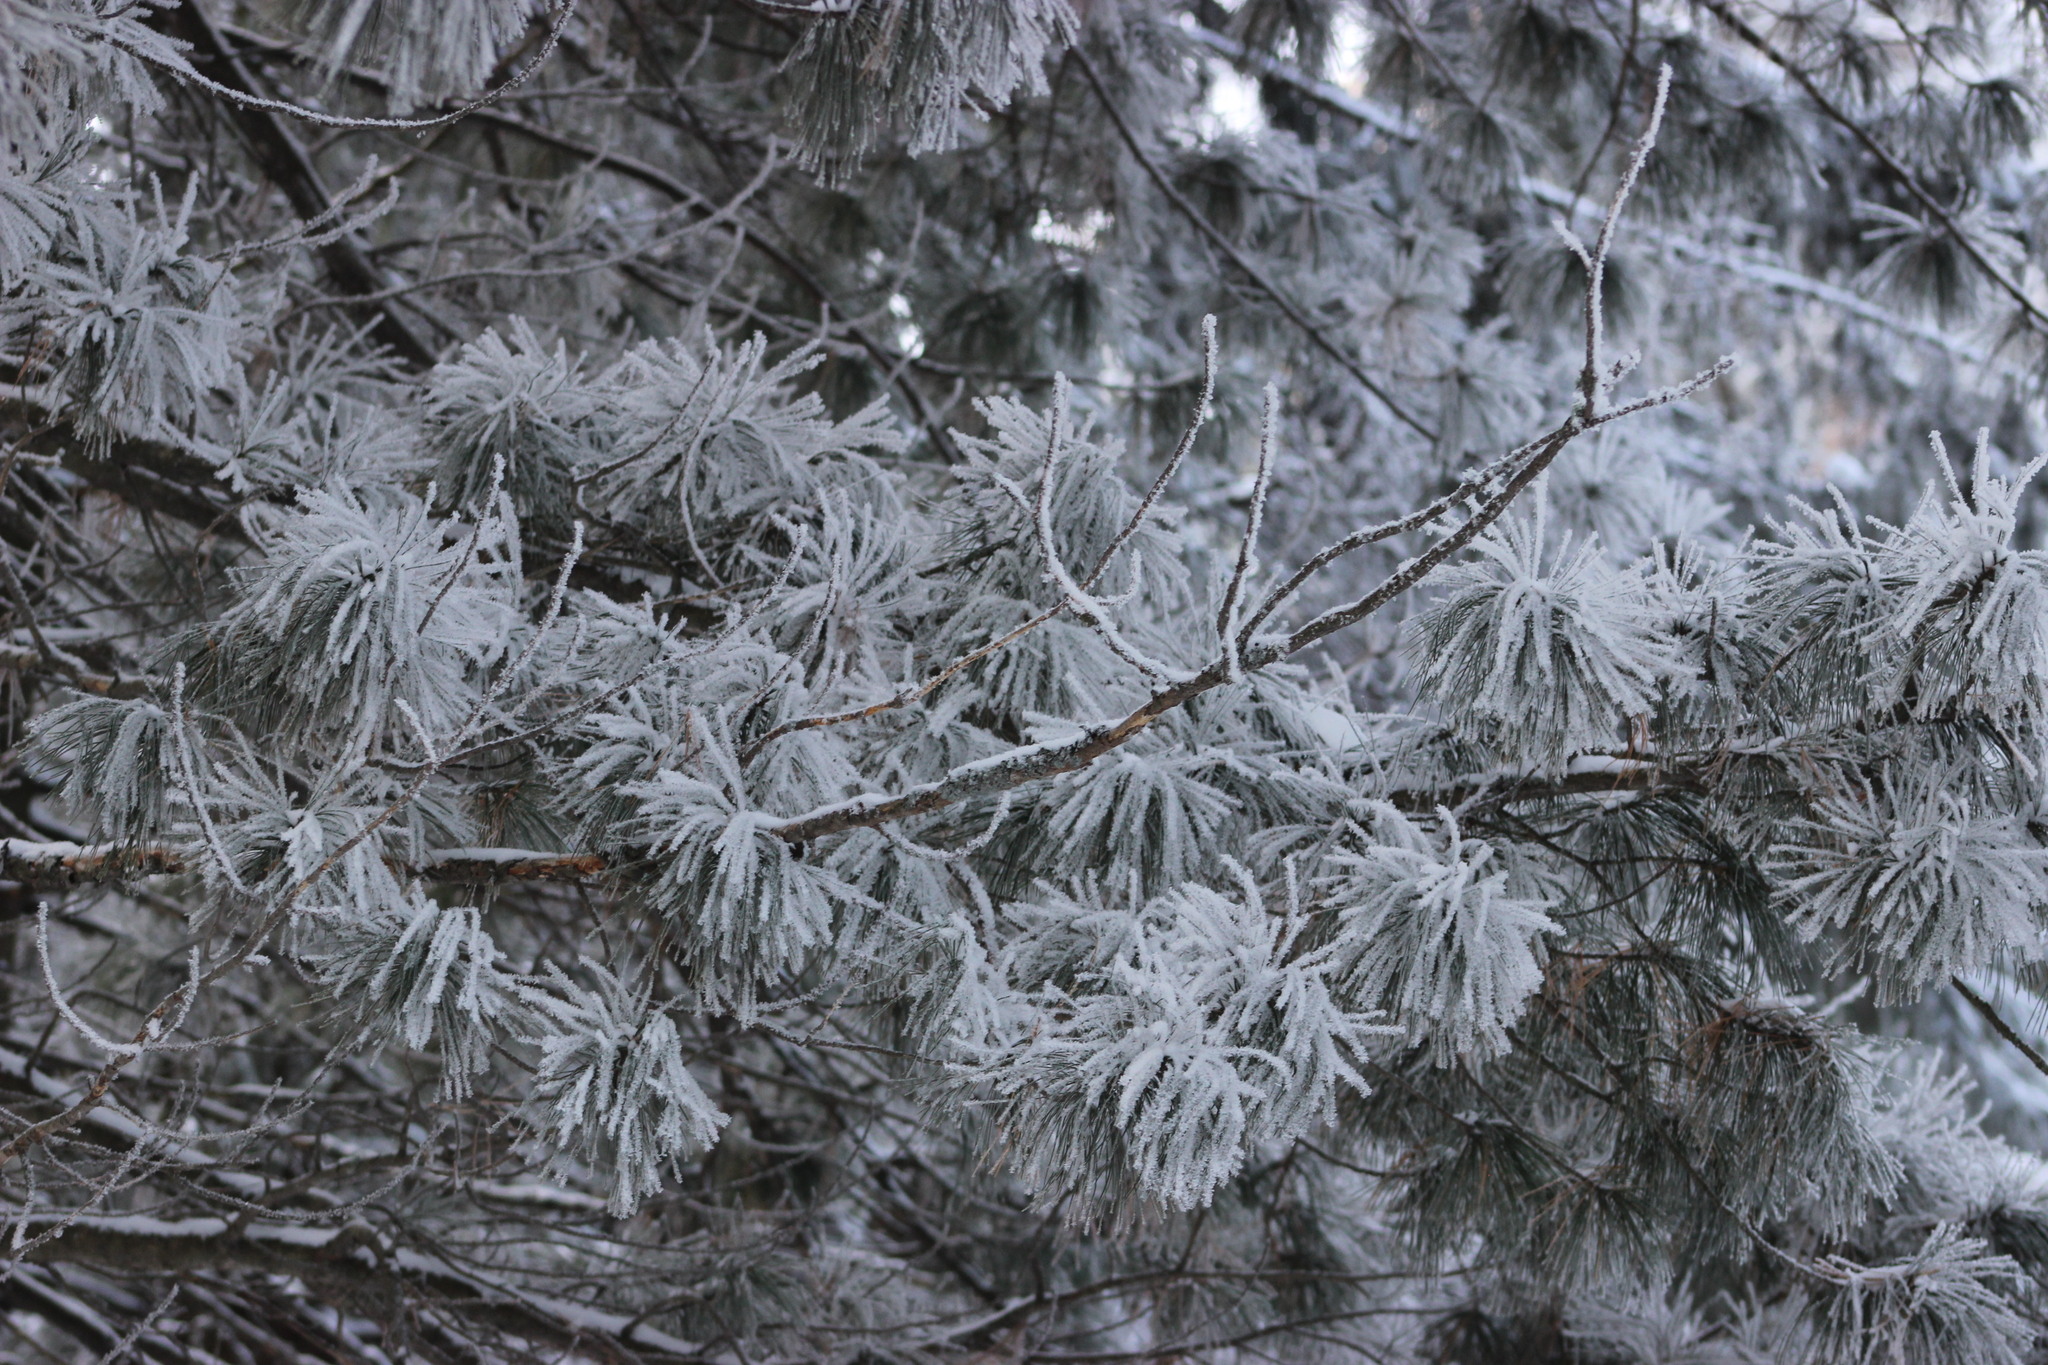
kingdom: Plantae
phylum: Tracheophyta
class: Pinopsida
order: Pinales
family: Pinaceae
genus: Pinus
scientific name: Pinus sibirica
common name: Siberian pine
